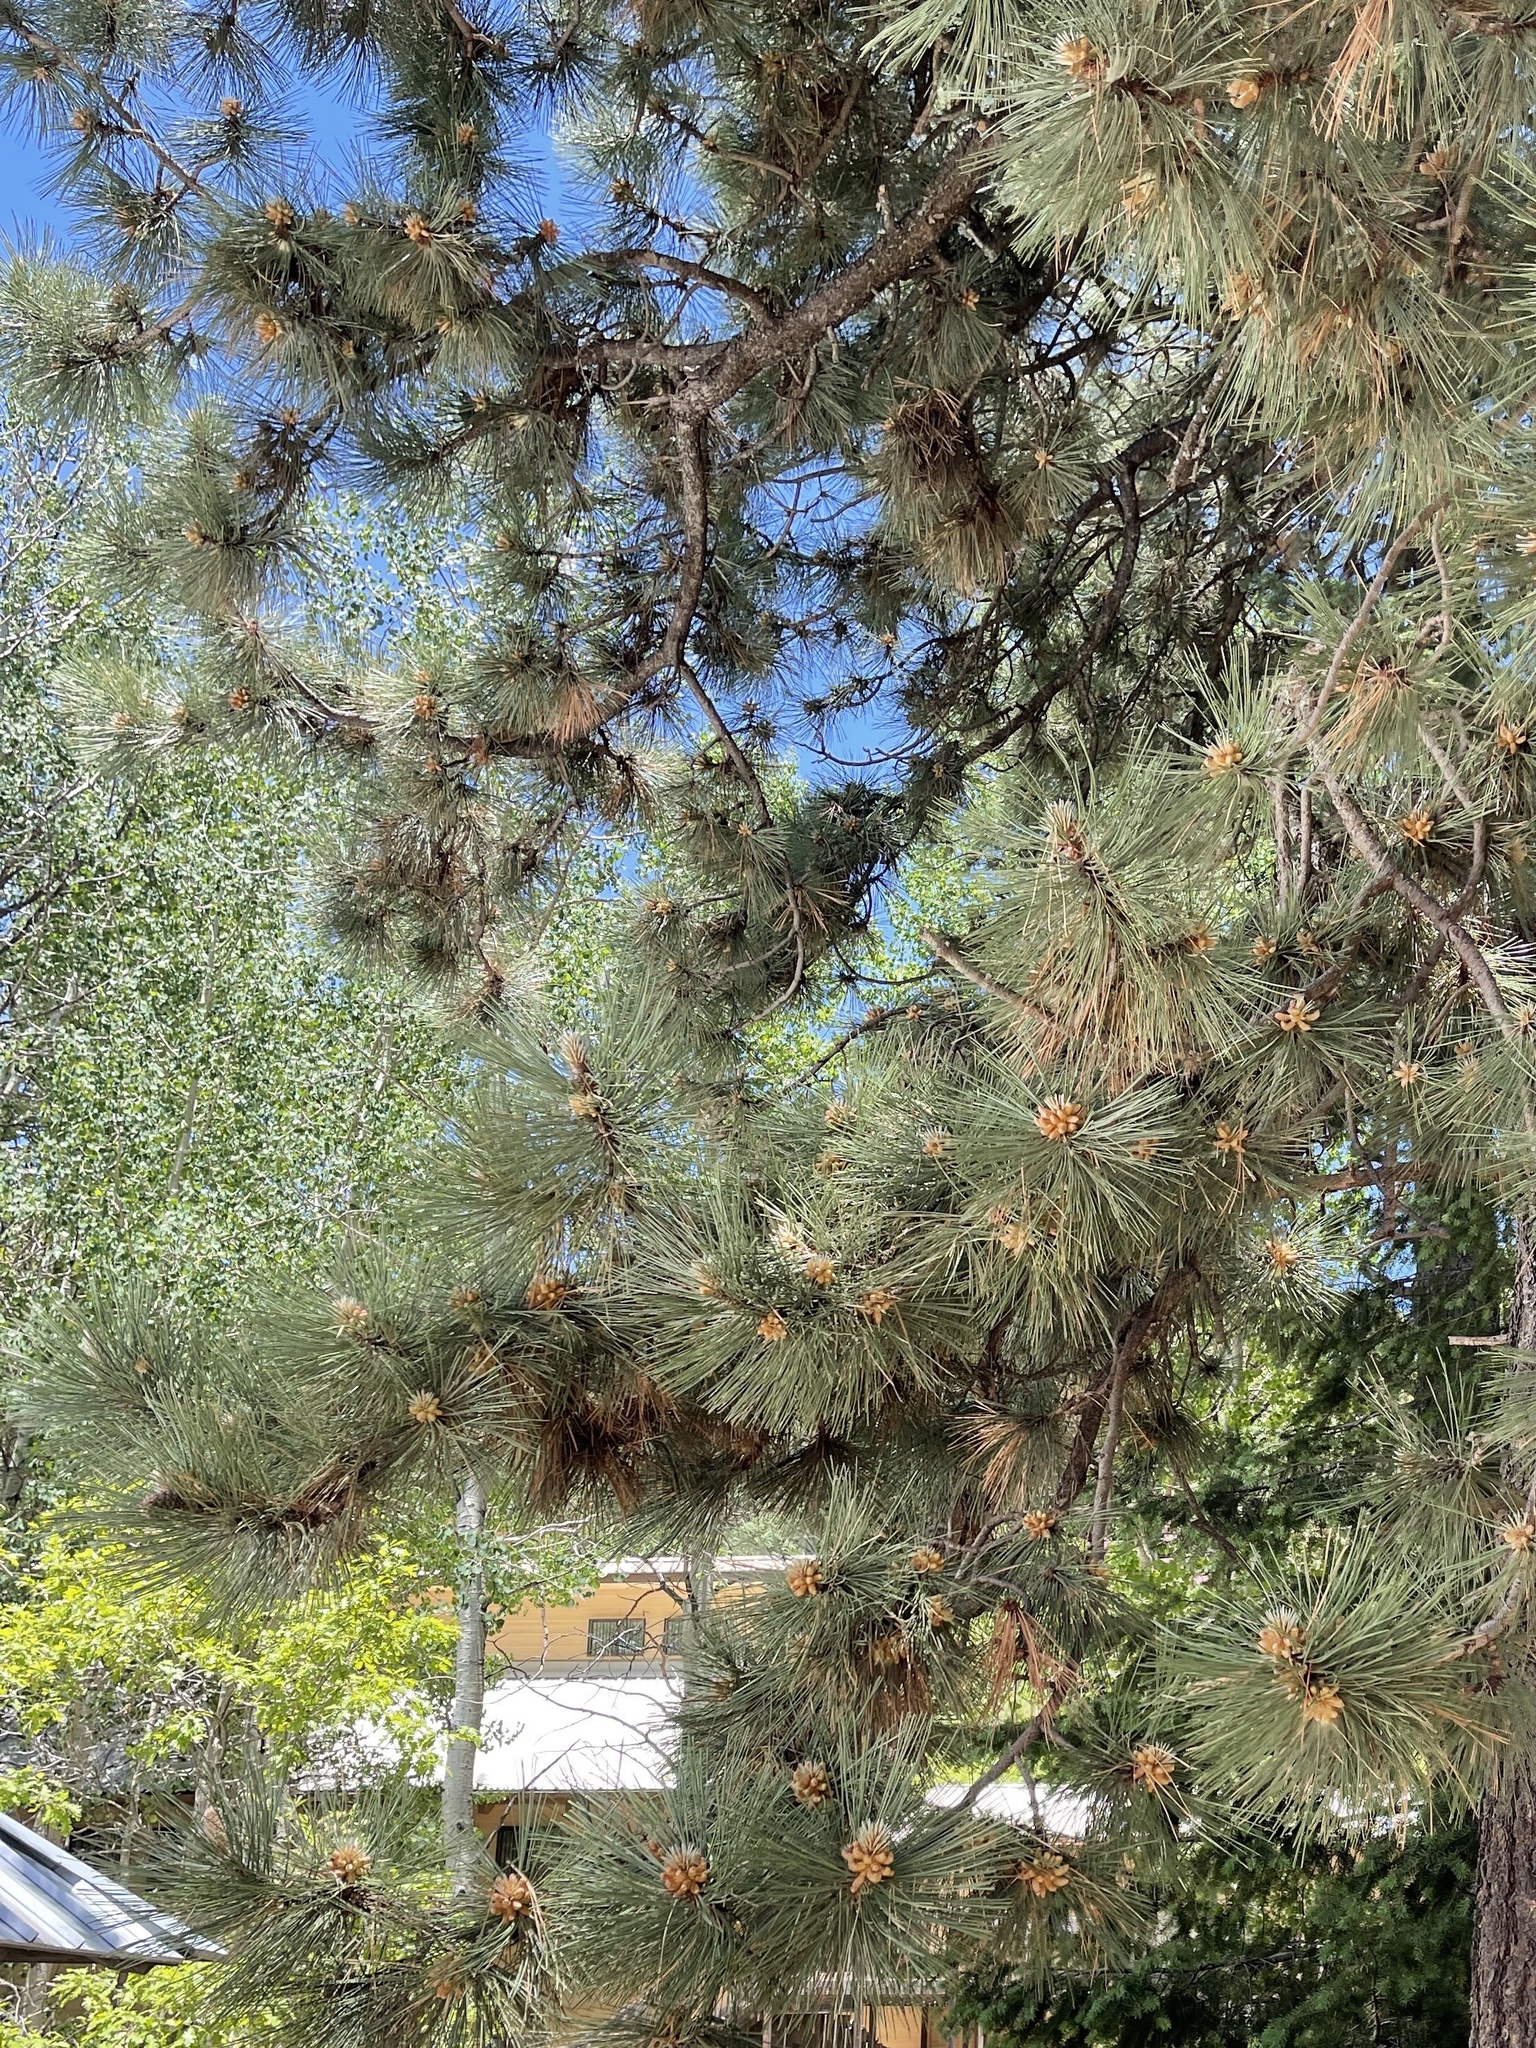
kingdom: Plantae
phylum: Tracheophyta
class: Pinopsida
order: Pinales
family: Pinaceae
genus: Pinus
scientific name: Pinus ponderosa
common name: Western yellow-pine
